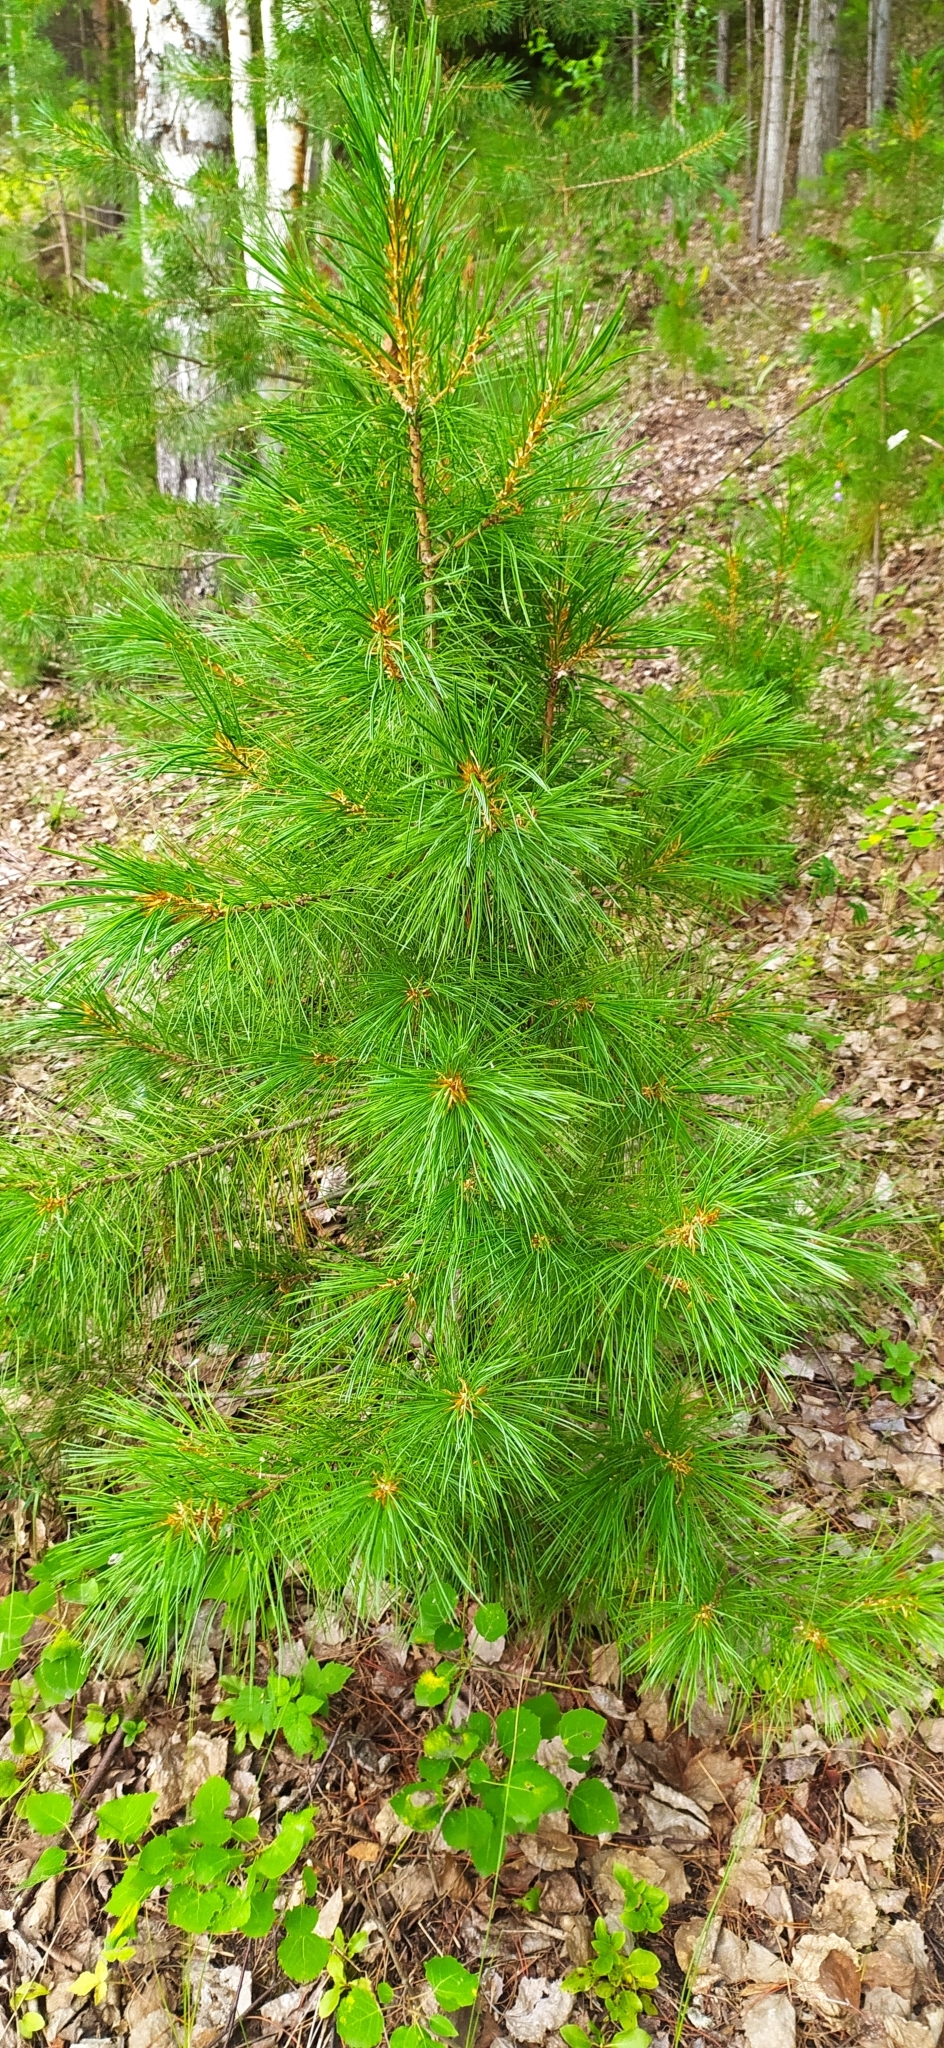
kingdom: Plantae
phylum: Tracheophyta
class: Pinopsida
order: Pinales
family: Pinaceae
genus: Pinus
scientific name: Pinus sibirica
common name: Siberian pine
